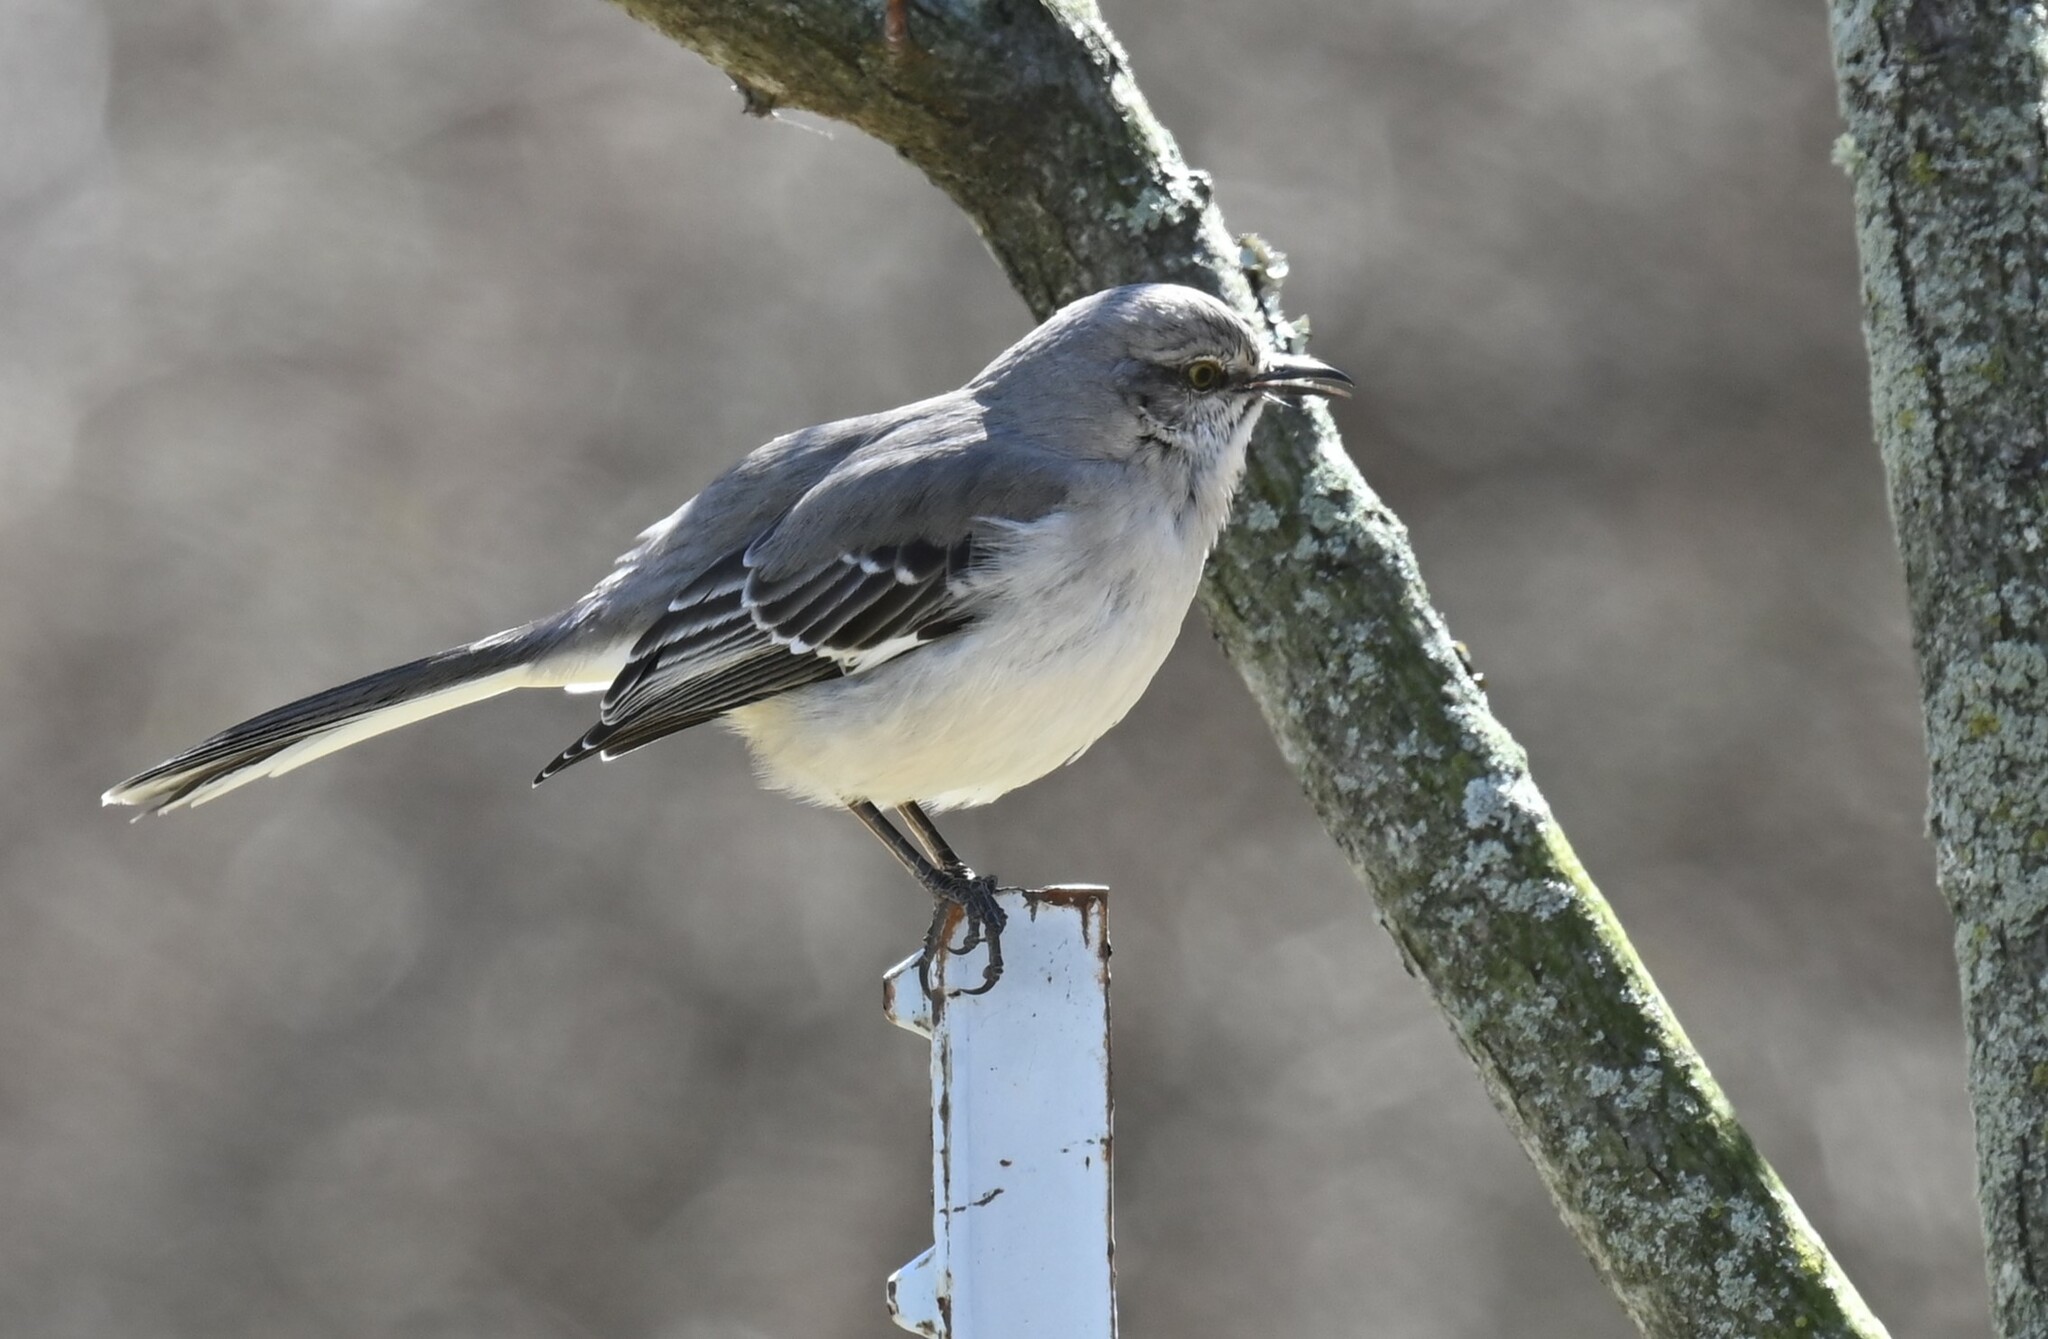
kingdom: Animalia
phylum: Chordata
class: Aves
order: Passeriformes
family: Mimidae
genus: Mimus
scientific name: Mimus polyglottos
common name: Northern mockingbird
